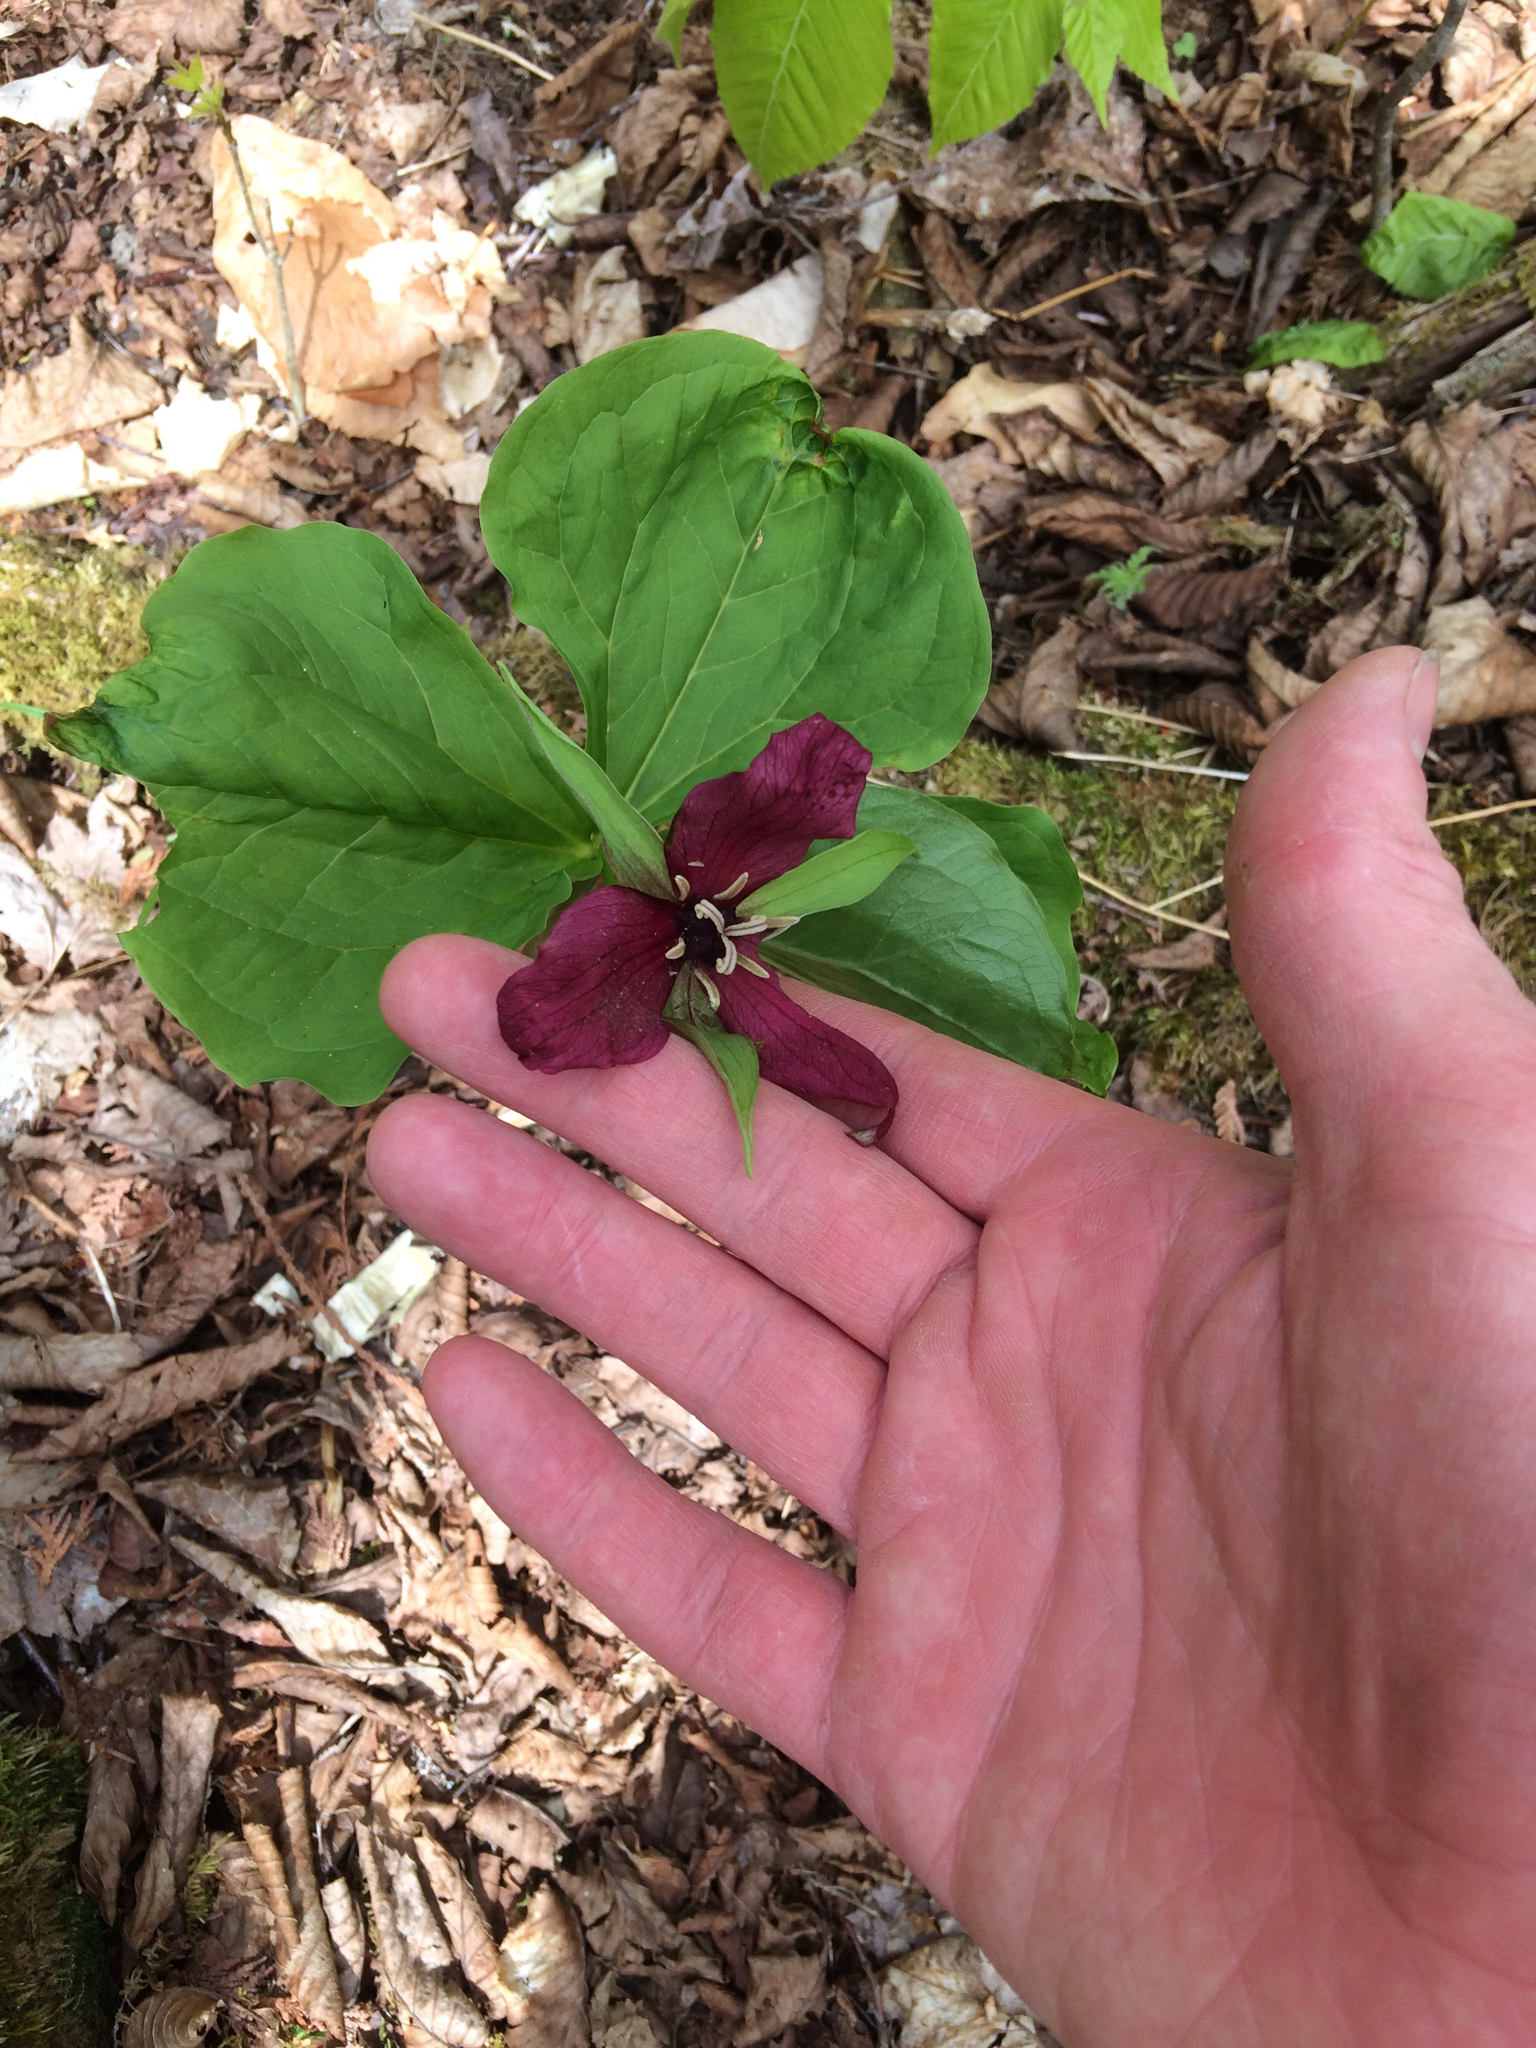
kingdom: Plantae
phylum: Tracheophyta
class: Liliopsida
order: Liliales
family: Melanthiaceae
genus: Trillium
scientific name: Trillium erectum
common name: Purple trillium
